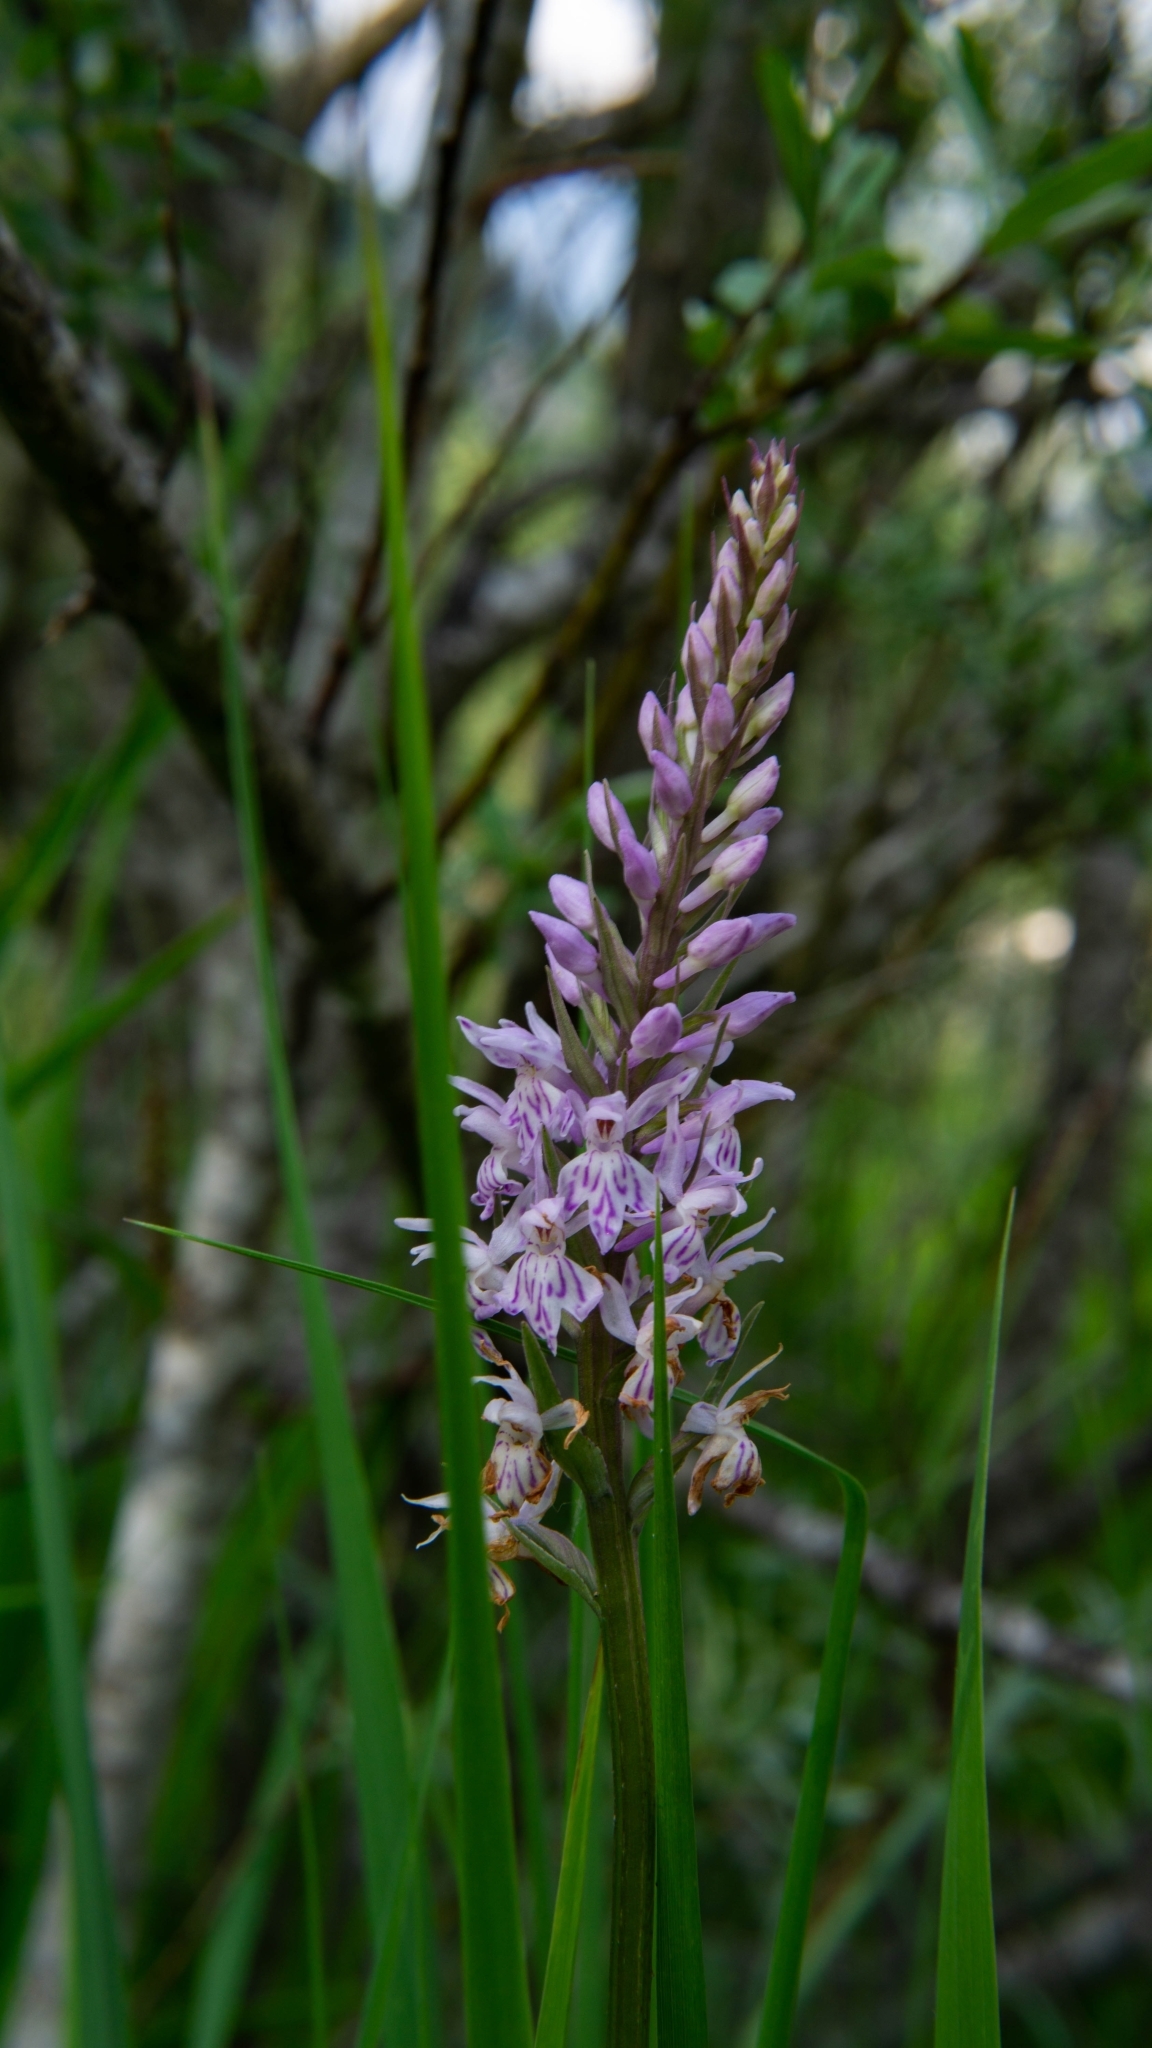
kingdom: Plantae
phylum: Tracheophyta
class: Liliopsida
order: Asparagales
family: Orchidaceae
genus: Dactylorhiza
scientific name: Dactylorhiza maculata
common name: Heath spotted-orchid
